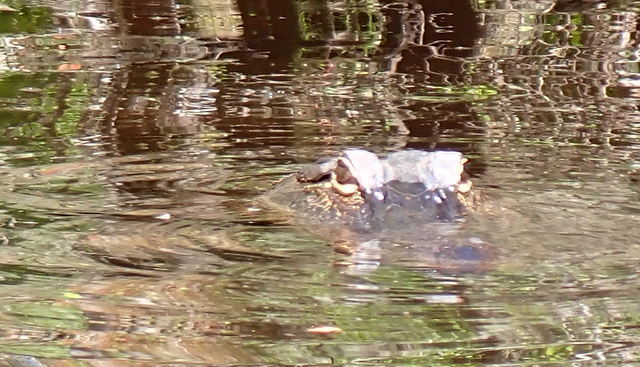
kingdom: Animalia
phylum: Chordata
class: Crocodylia
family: Alligatoridae
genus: Alligator
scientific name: Alligator mississippiensis
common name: American alligator
